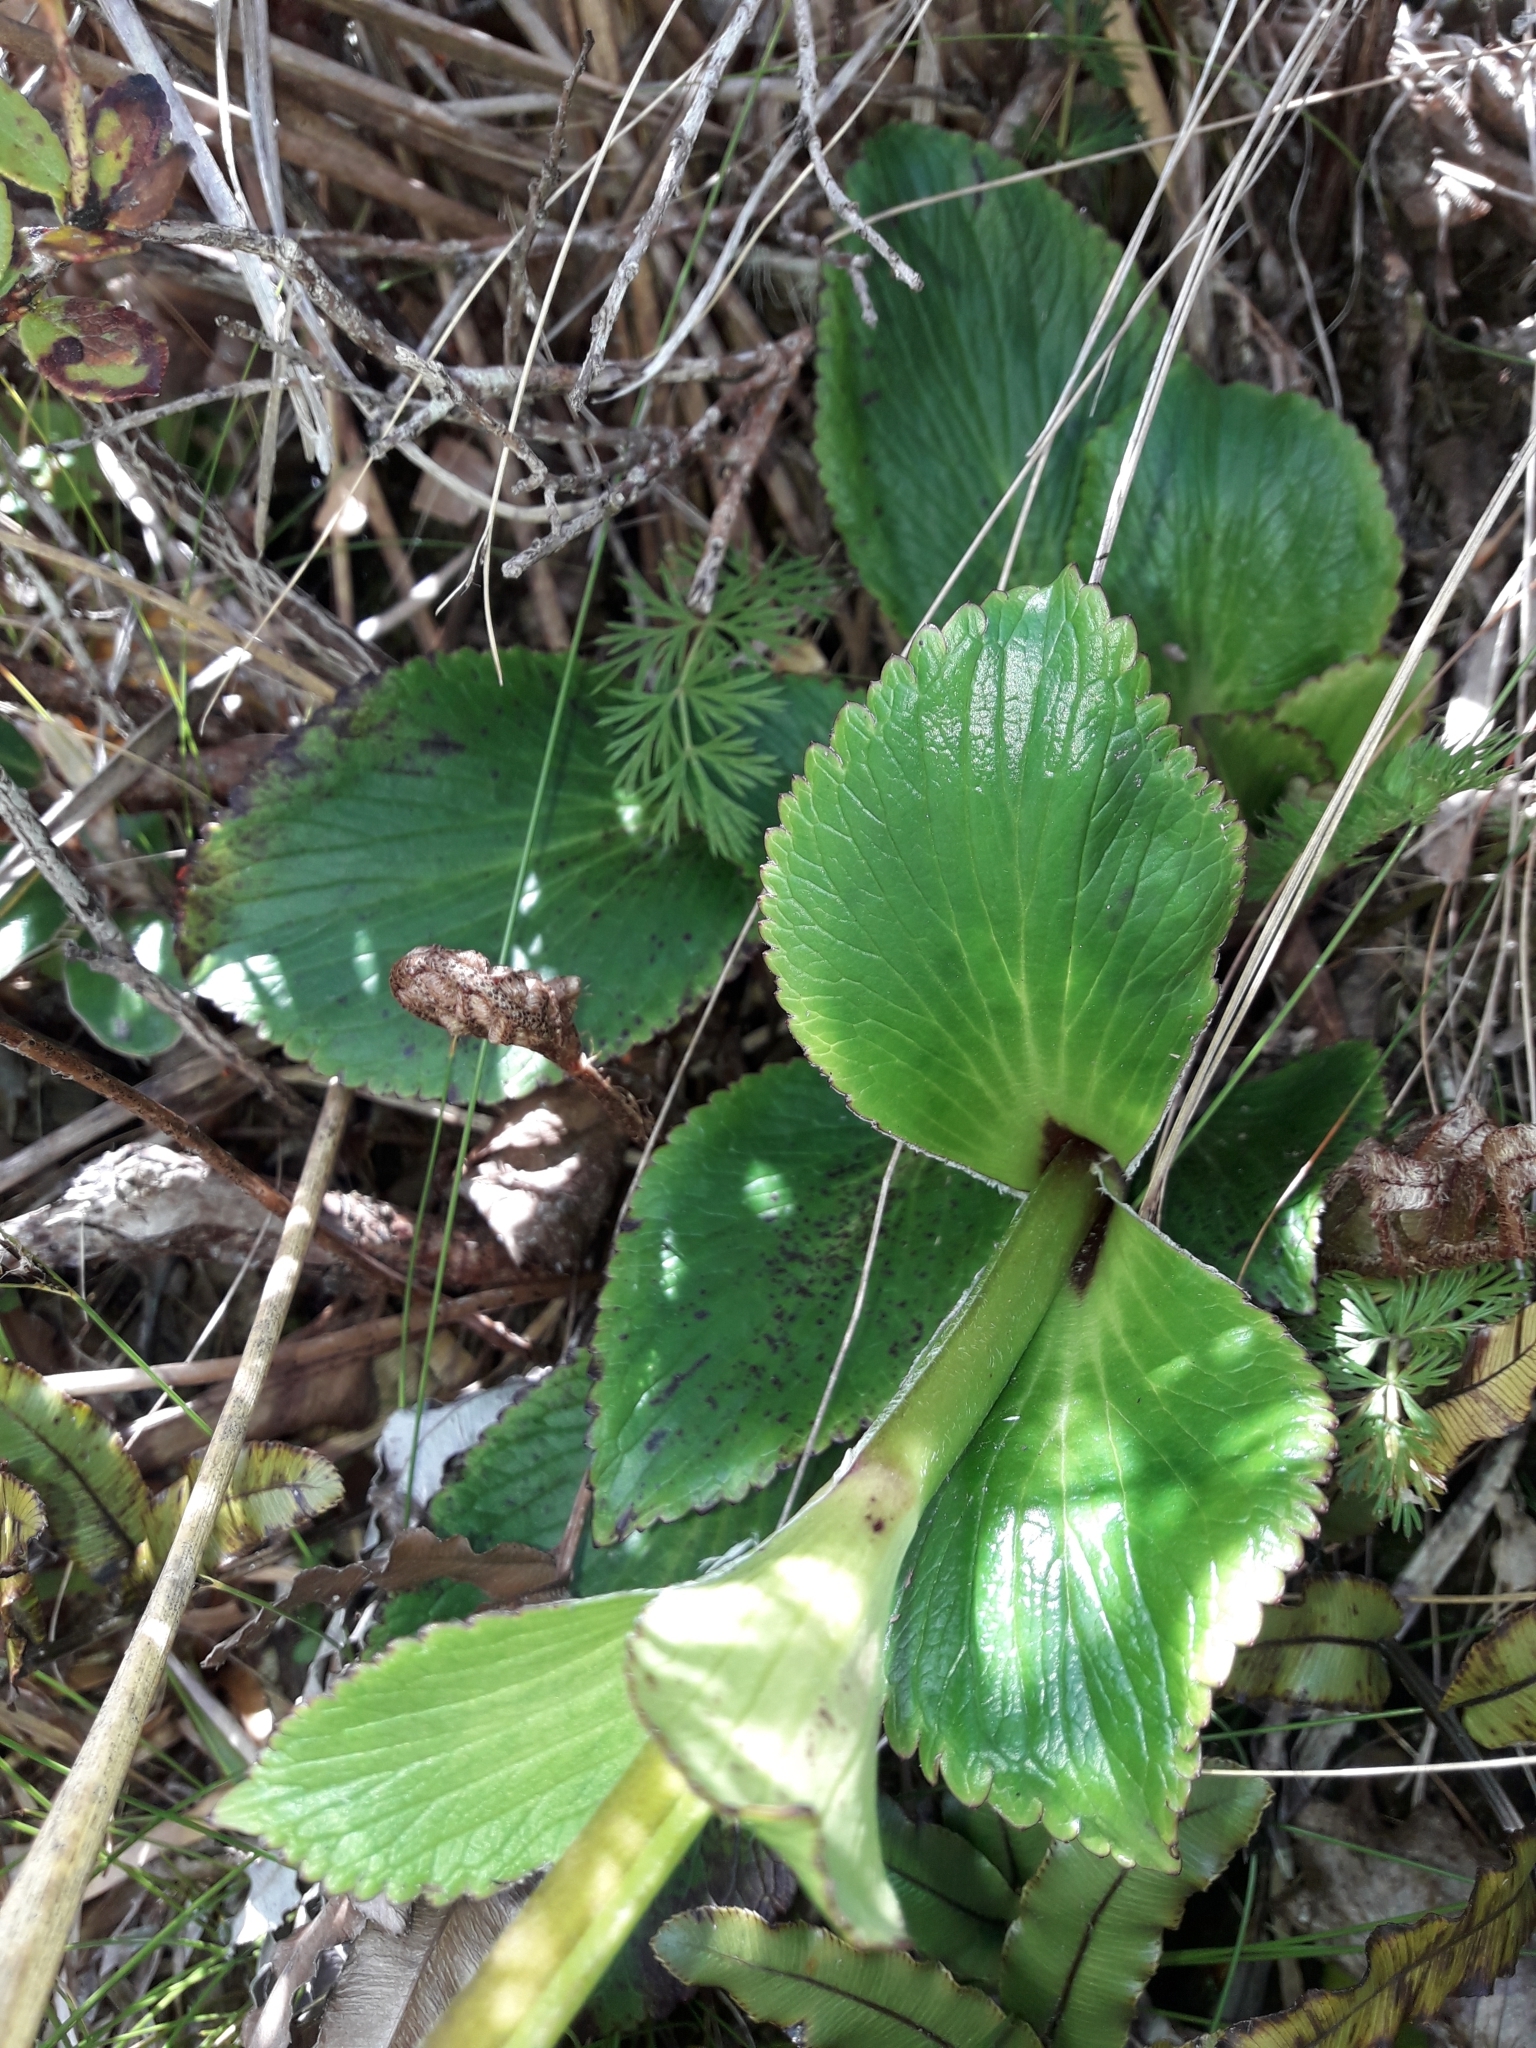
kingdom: Plantae
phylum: Tracheophyta
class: Magnoliopsida
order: Lamiales
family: Plantaginaceae
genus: Ourisia
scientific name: Ourisia calycina
